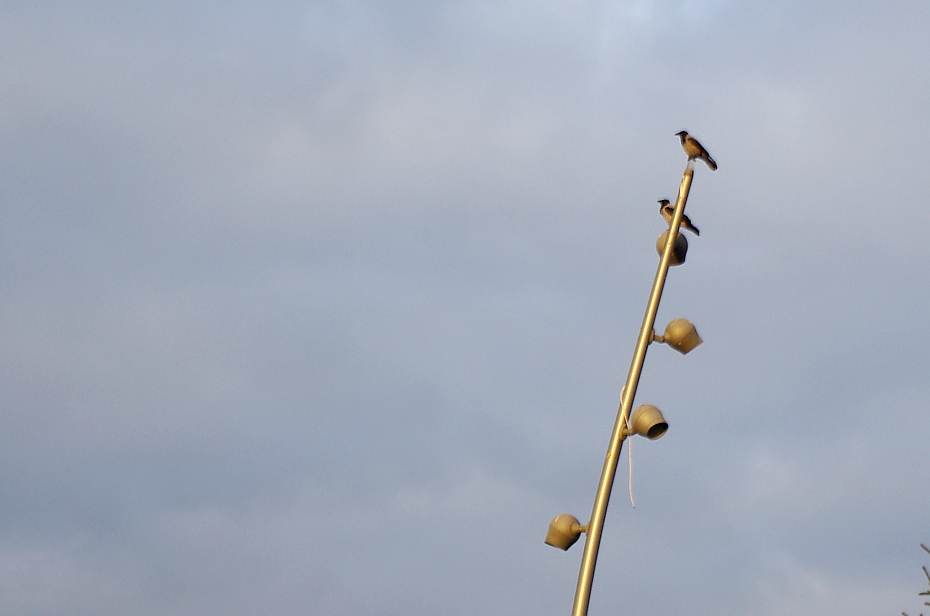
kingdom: Animalia
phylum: Chordata
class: Aves
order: Passeriformes
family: Corvidae
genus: Corvus
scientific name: Corvus cornix
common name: Hooded crow
